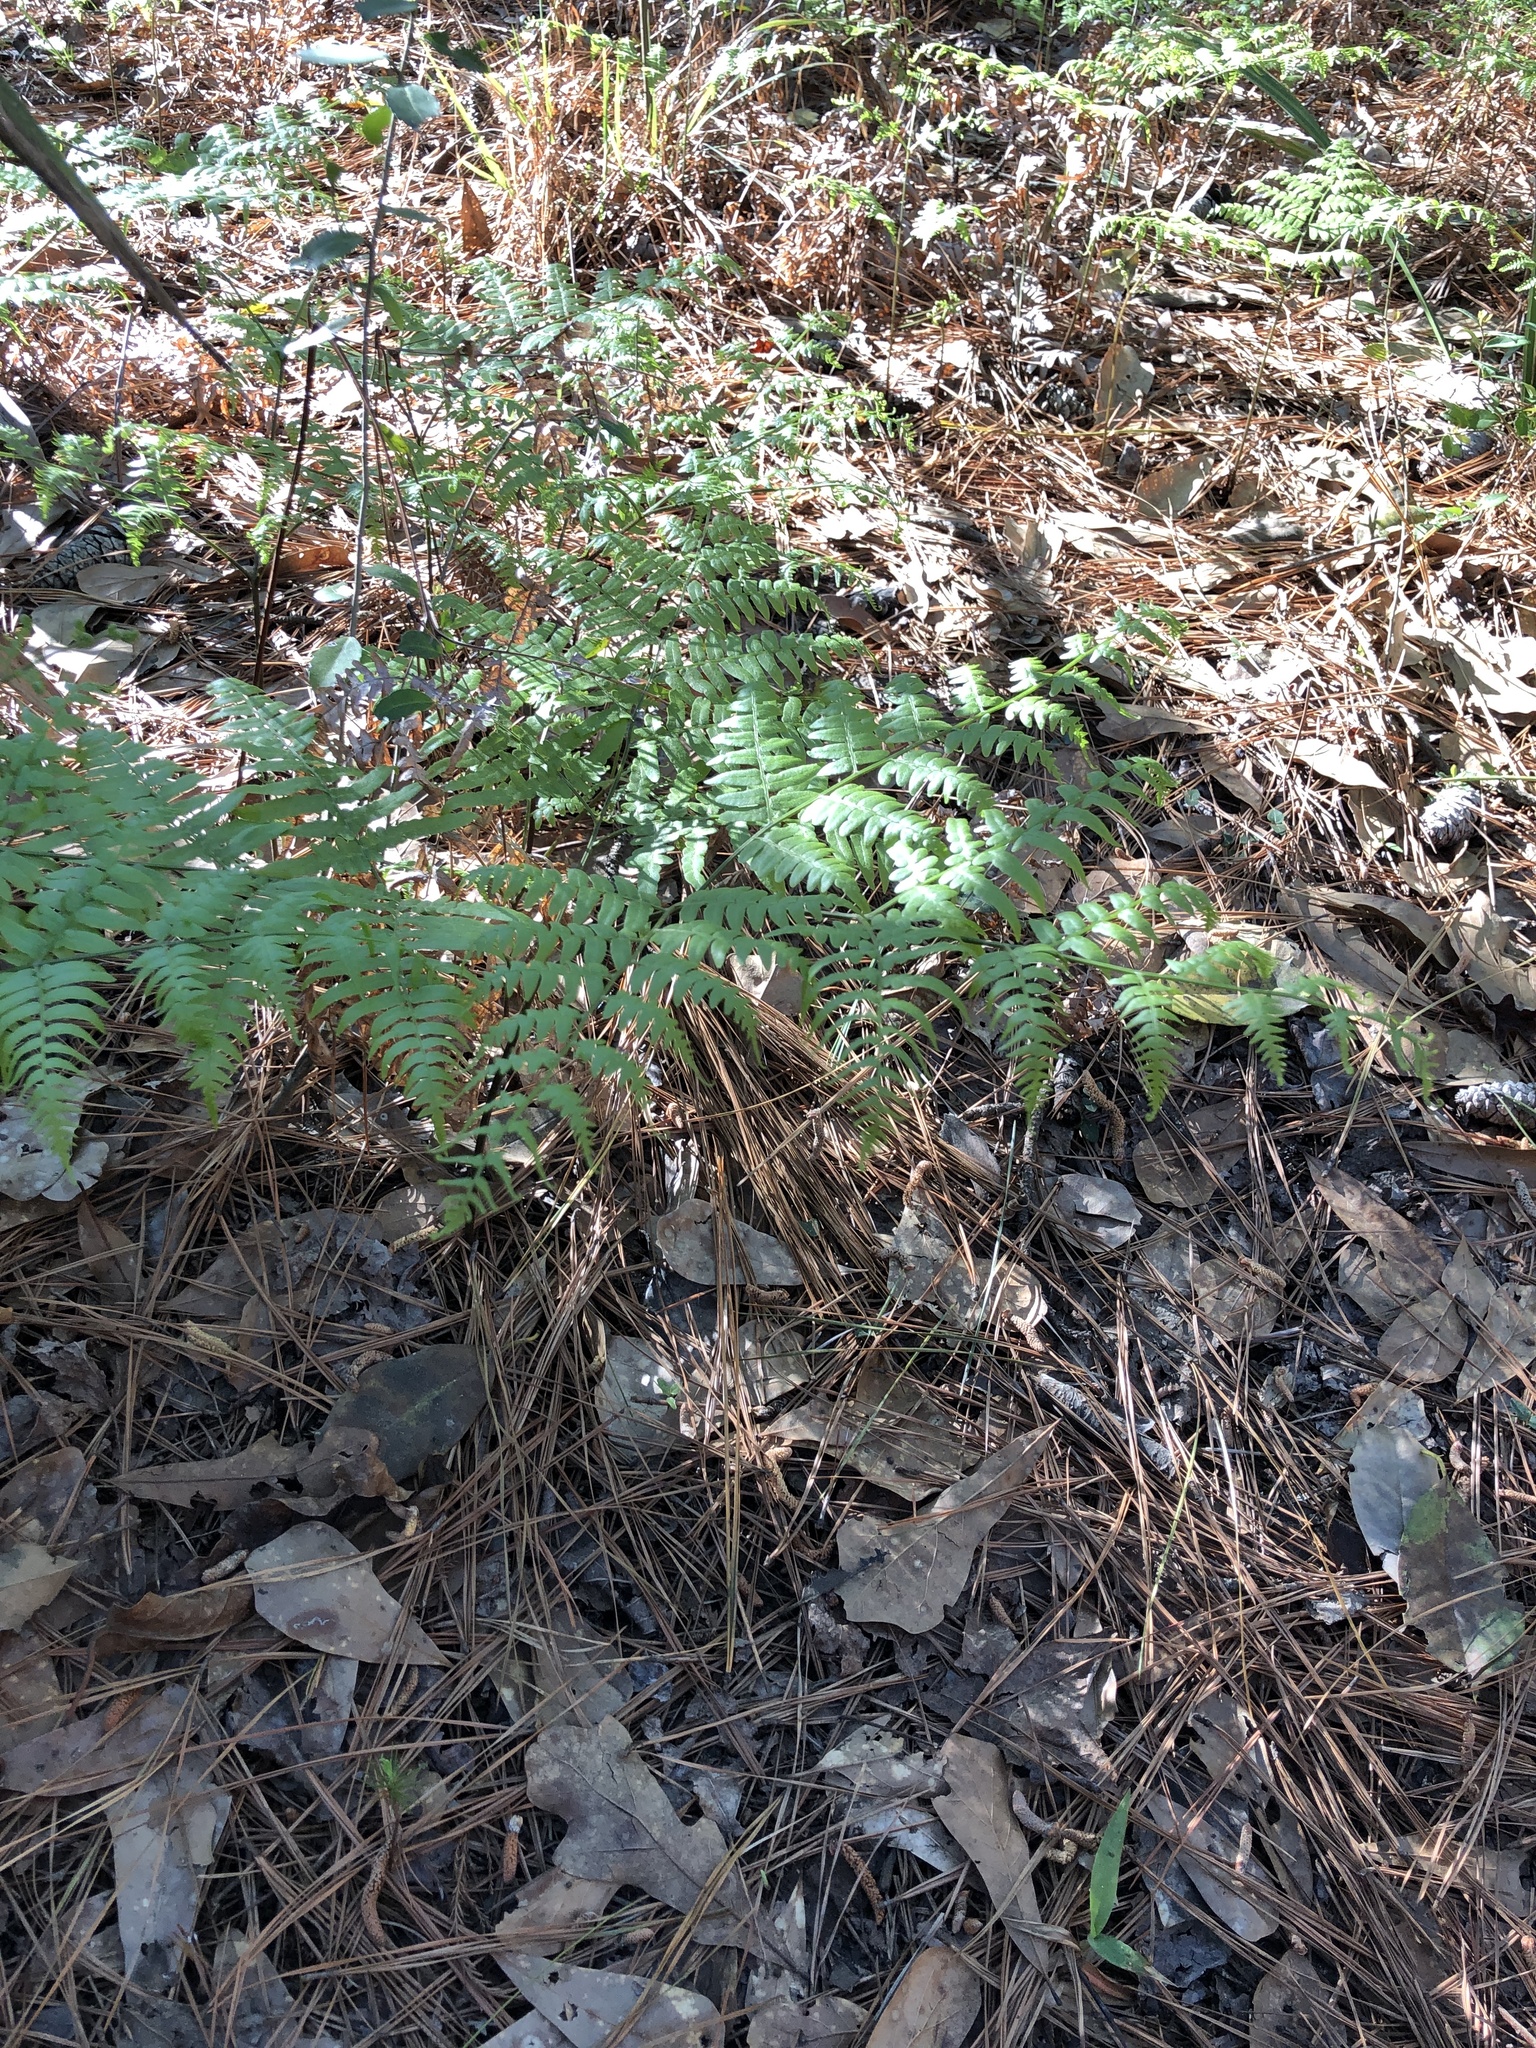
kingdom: Plantae
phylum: Tracheophyta
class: Polypodiopsida
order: Polypodiales
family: Dennstaedtiaceae
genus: Pteridium
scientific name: Pteridium
